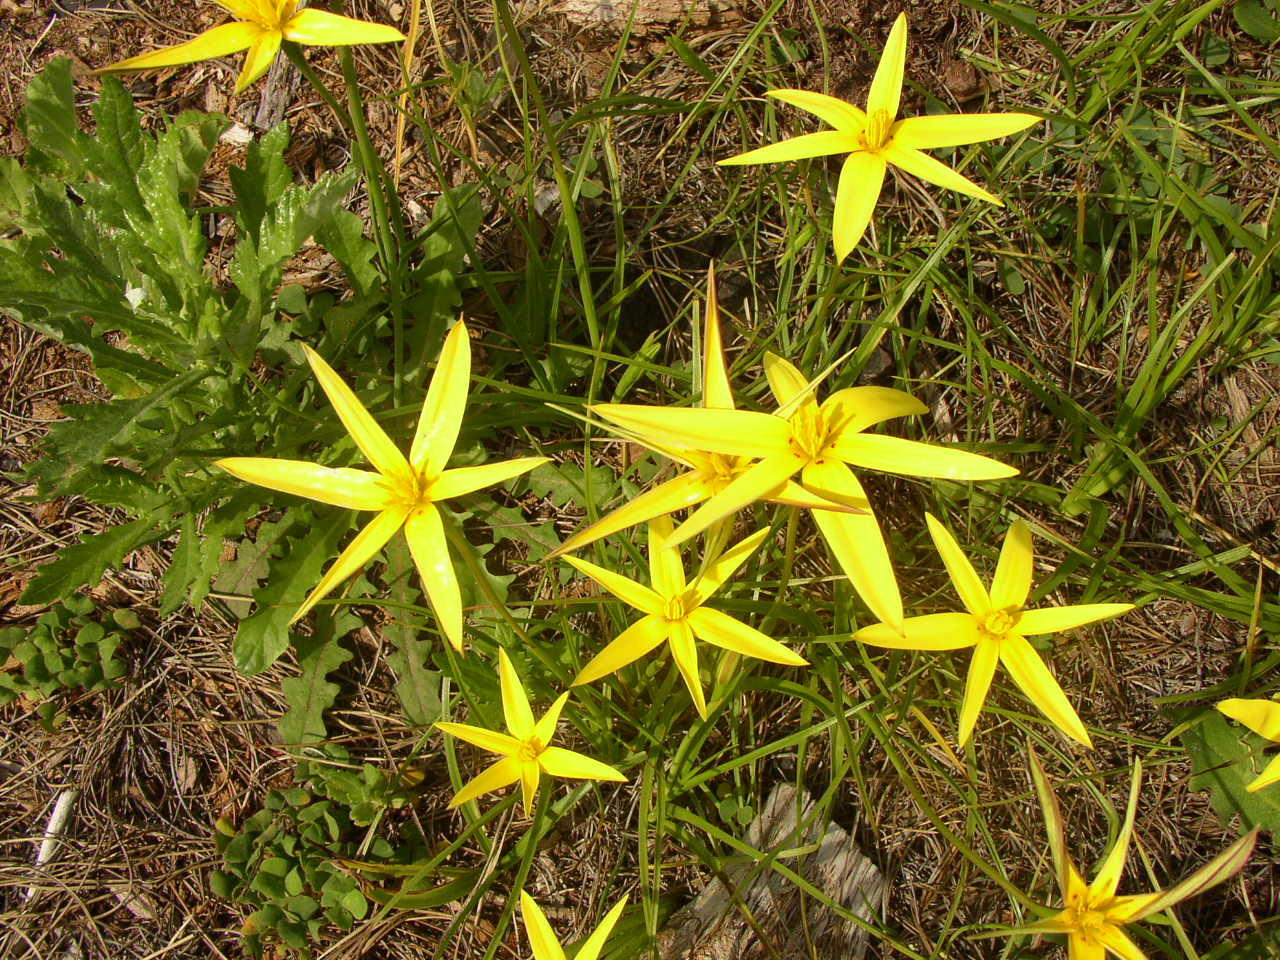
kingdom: Plantae
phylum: Tracheophyta
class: Liliopsida
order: Asparagales
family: Hypoxidaceae
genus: Pauridia
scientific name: Pauridia capensis
